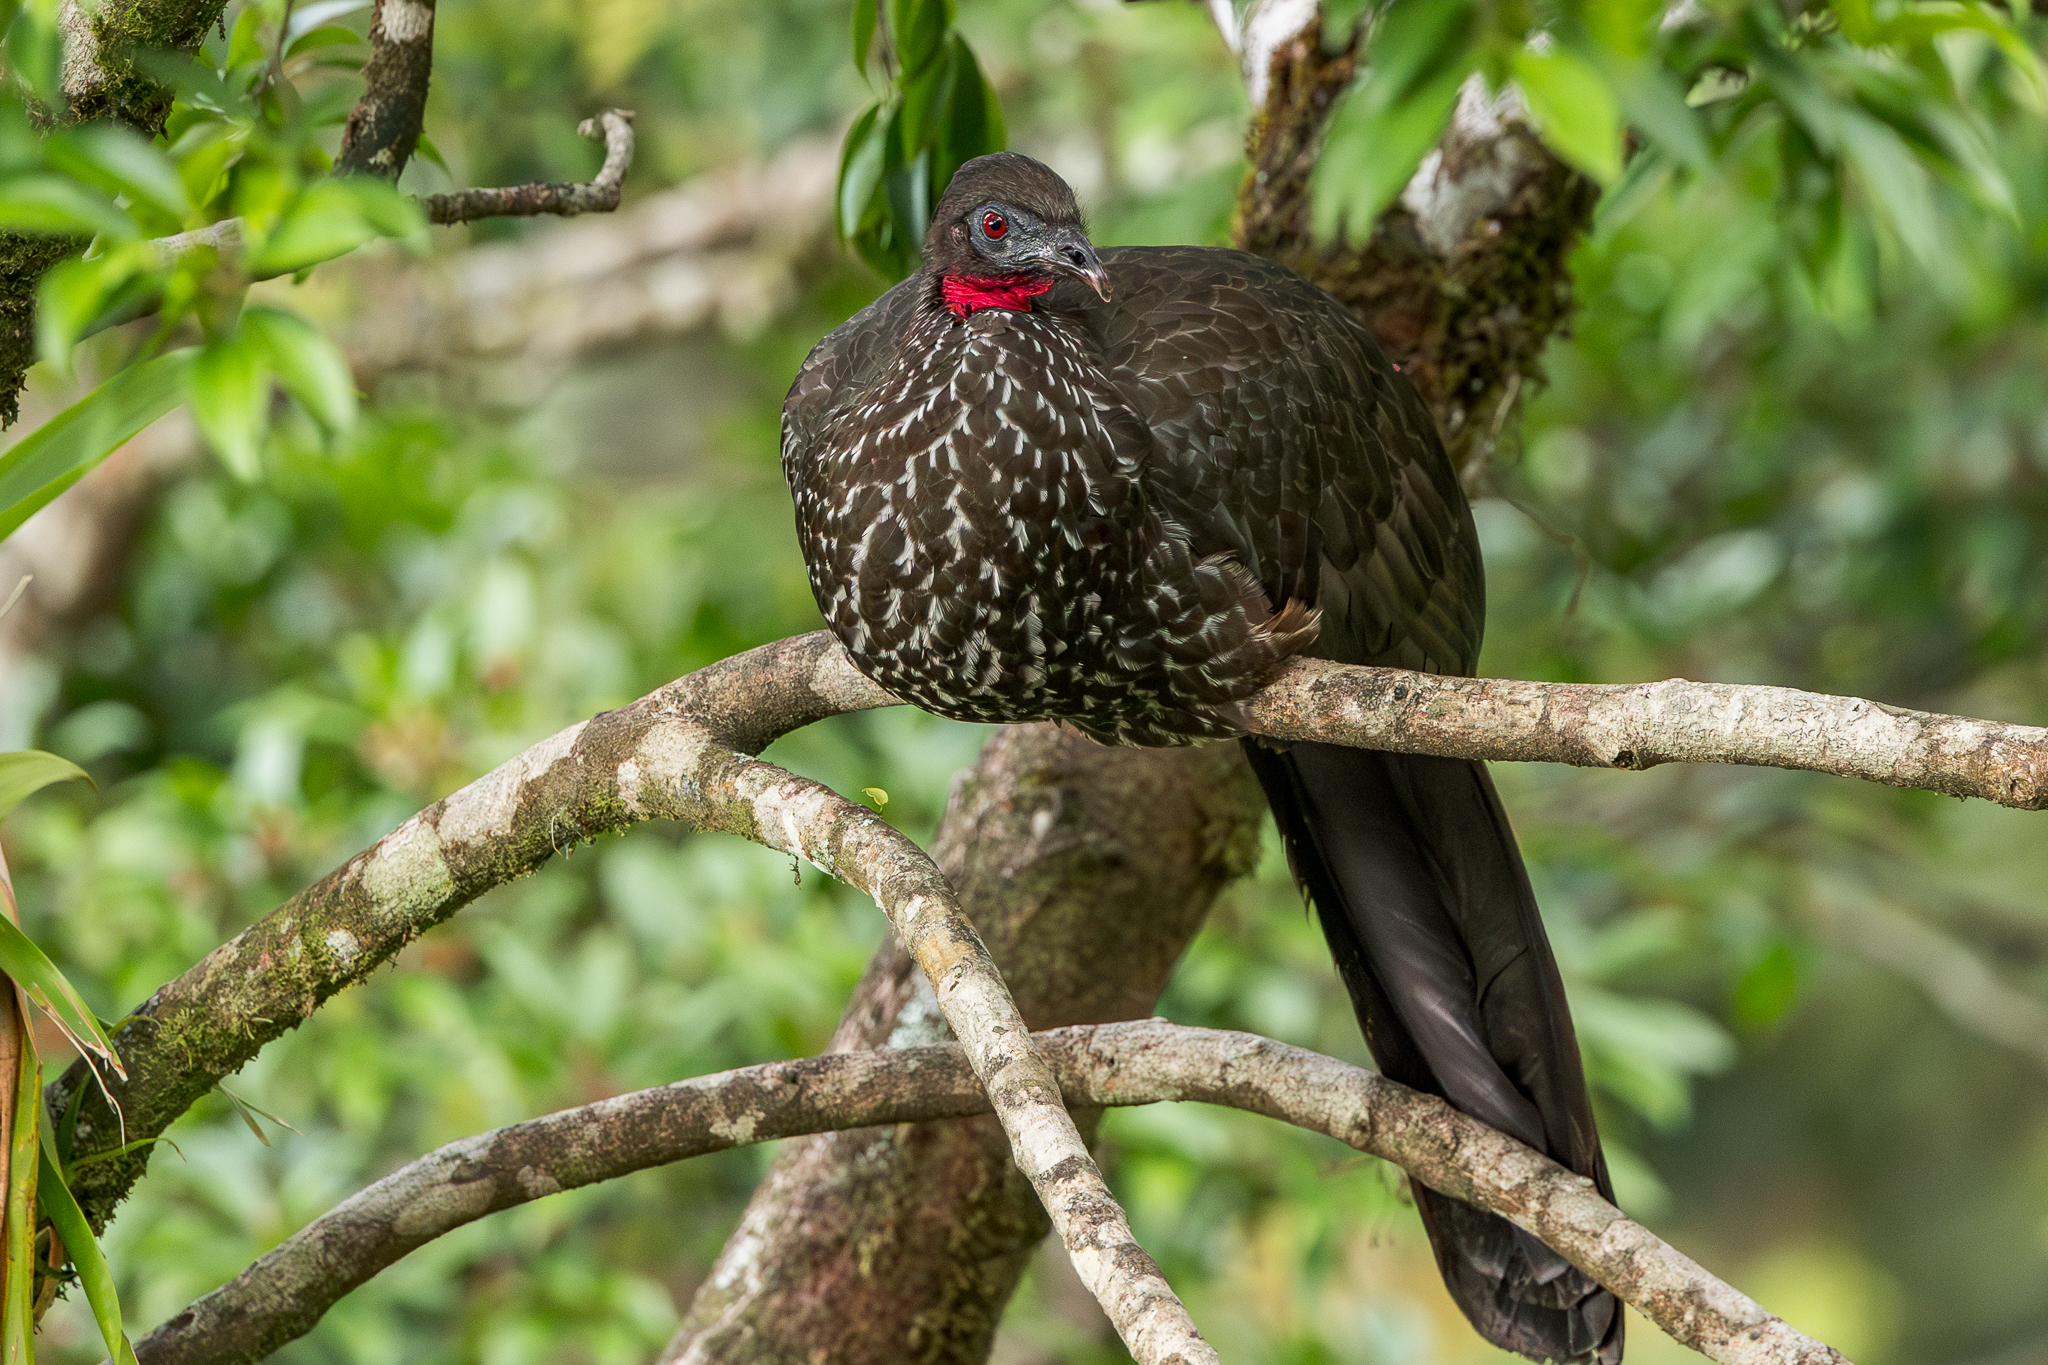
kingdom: Animalia
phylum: Chordata
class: Aves
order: Galliformes
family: Cracidae
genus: Penelope
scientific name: Penelope purpurascens
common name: Crested guan
